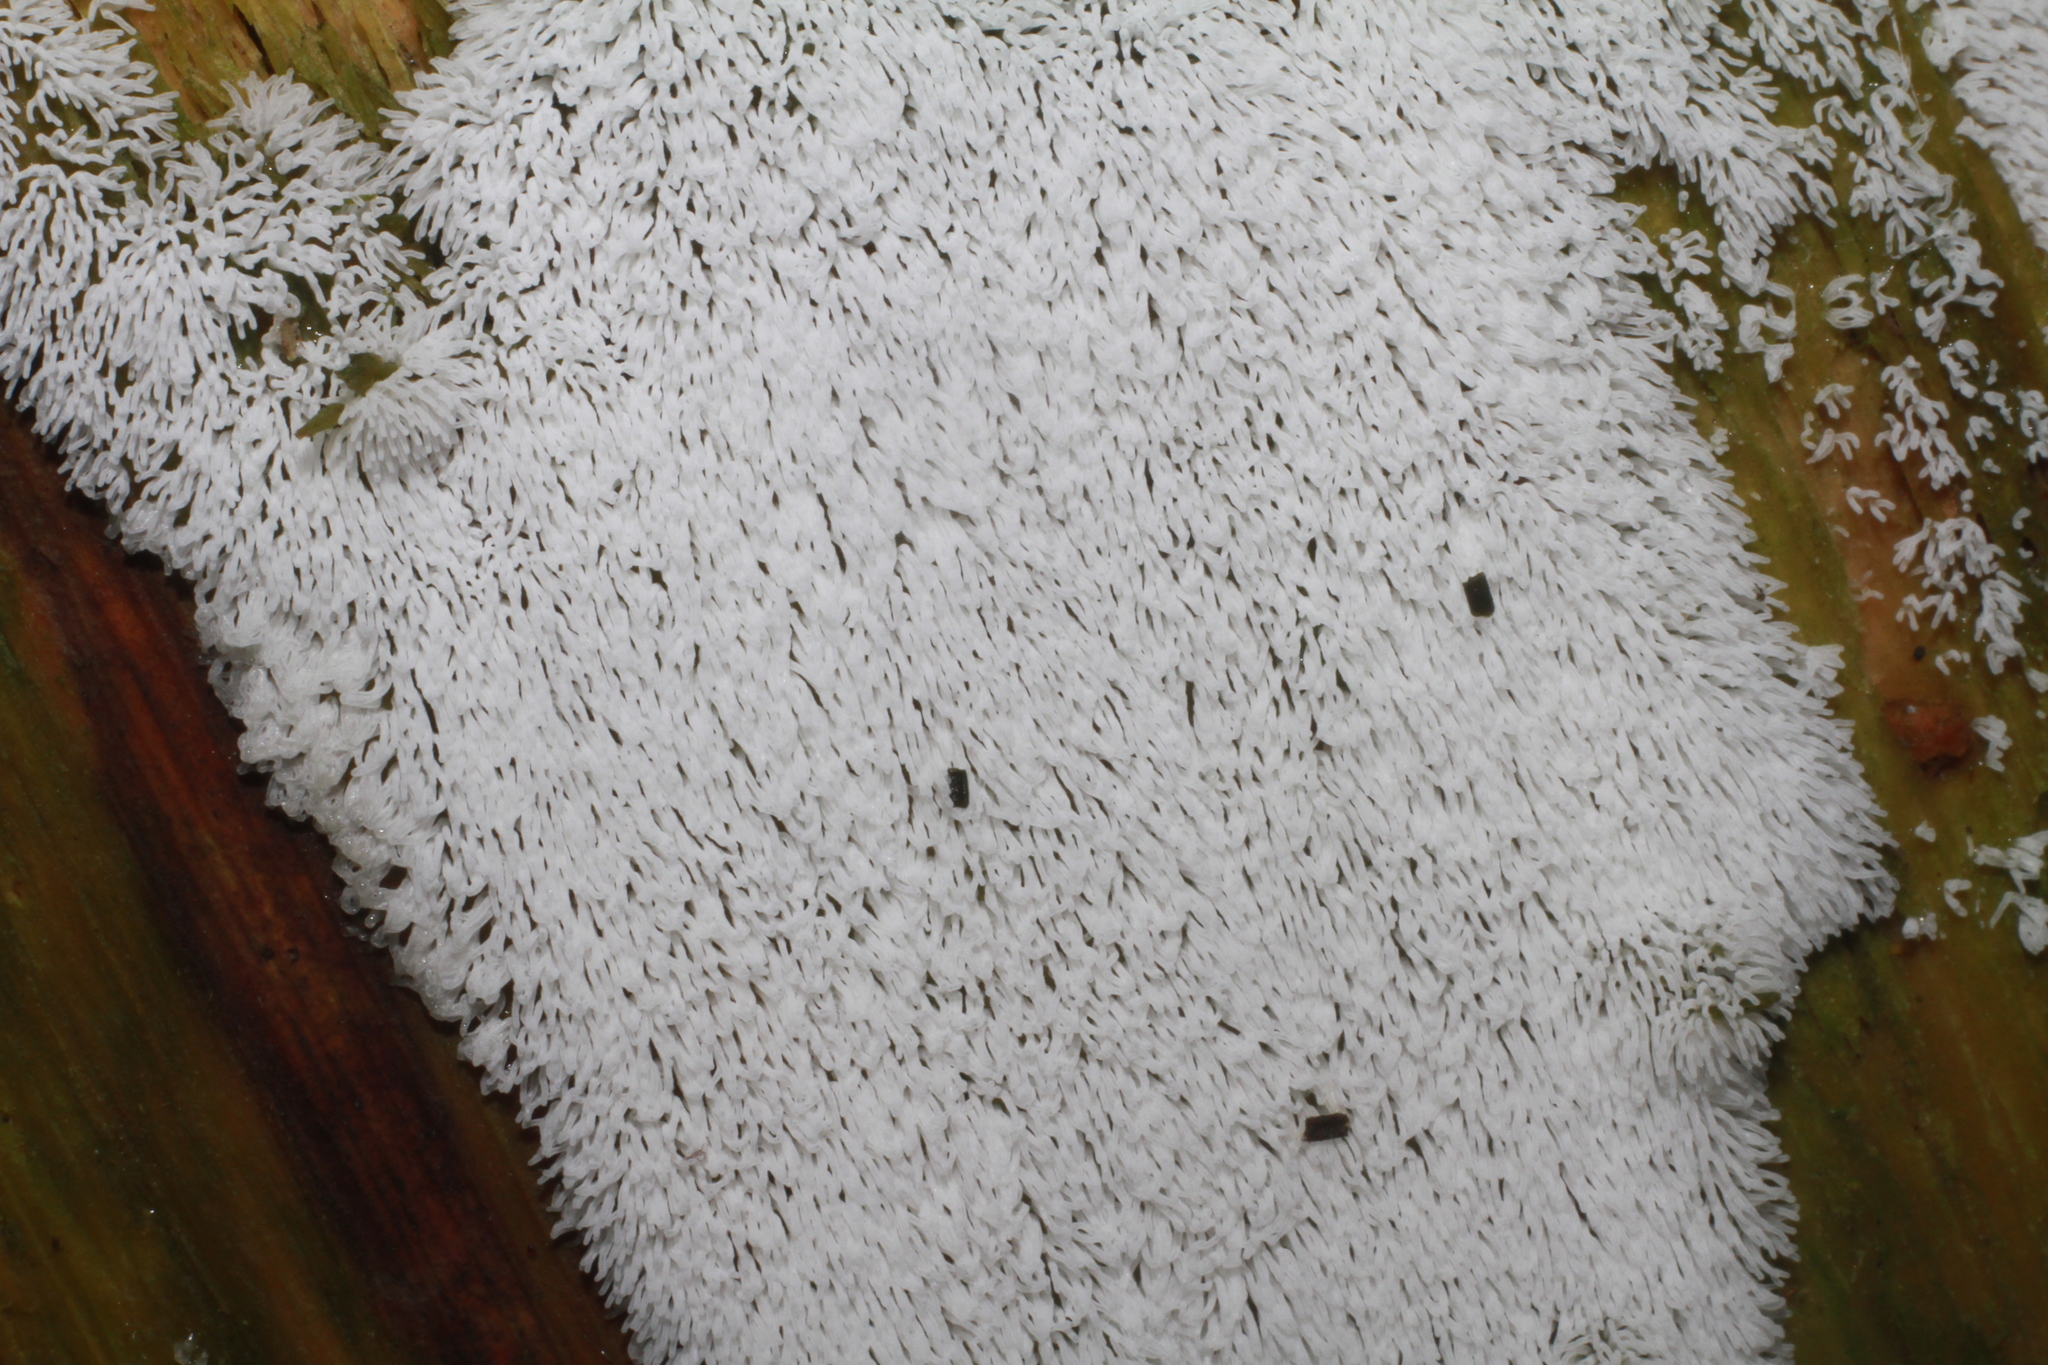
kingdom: Protozoa
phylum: Mycetozoa
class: Protosteliomycetes
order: Ceratiomyxales
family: Ceratiomyxaceae
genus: Ceratiomyxa
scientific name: Ceratiomyxa fruticulosa
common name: Honeycomb coral slime mold
